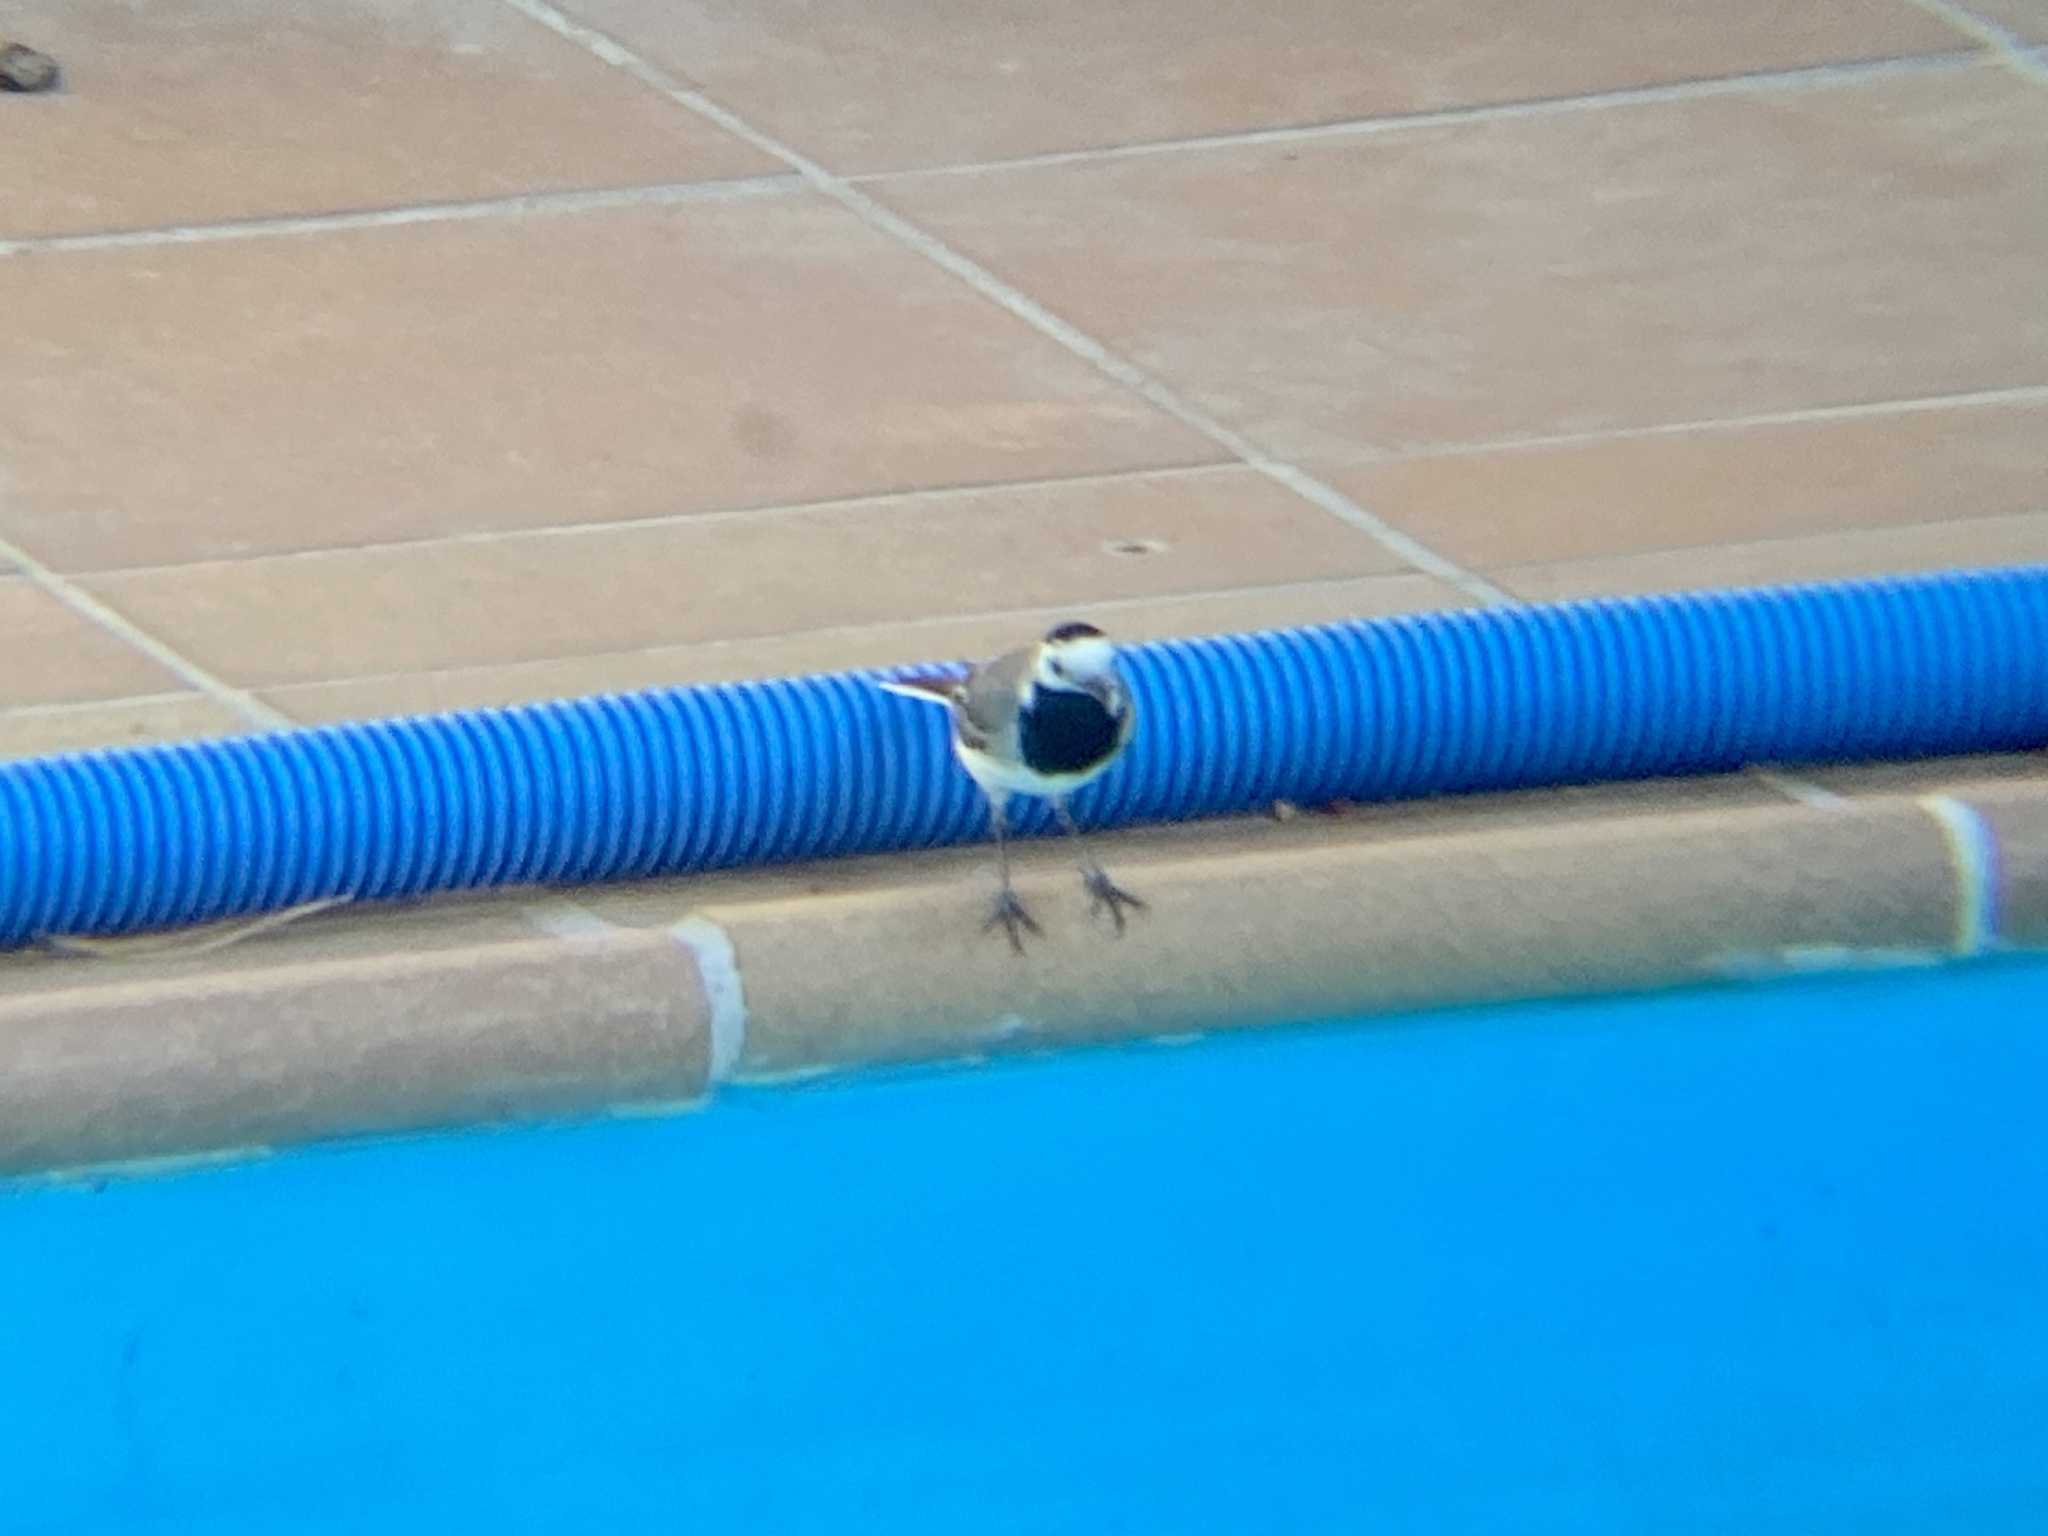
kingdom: Animalia
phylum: Chordata
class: Aves
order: Passeriformes
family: Motacillidae
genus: Motacilla
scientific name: Motacilla alba
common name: White wagtail
